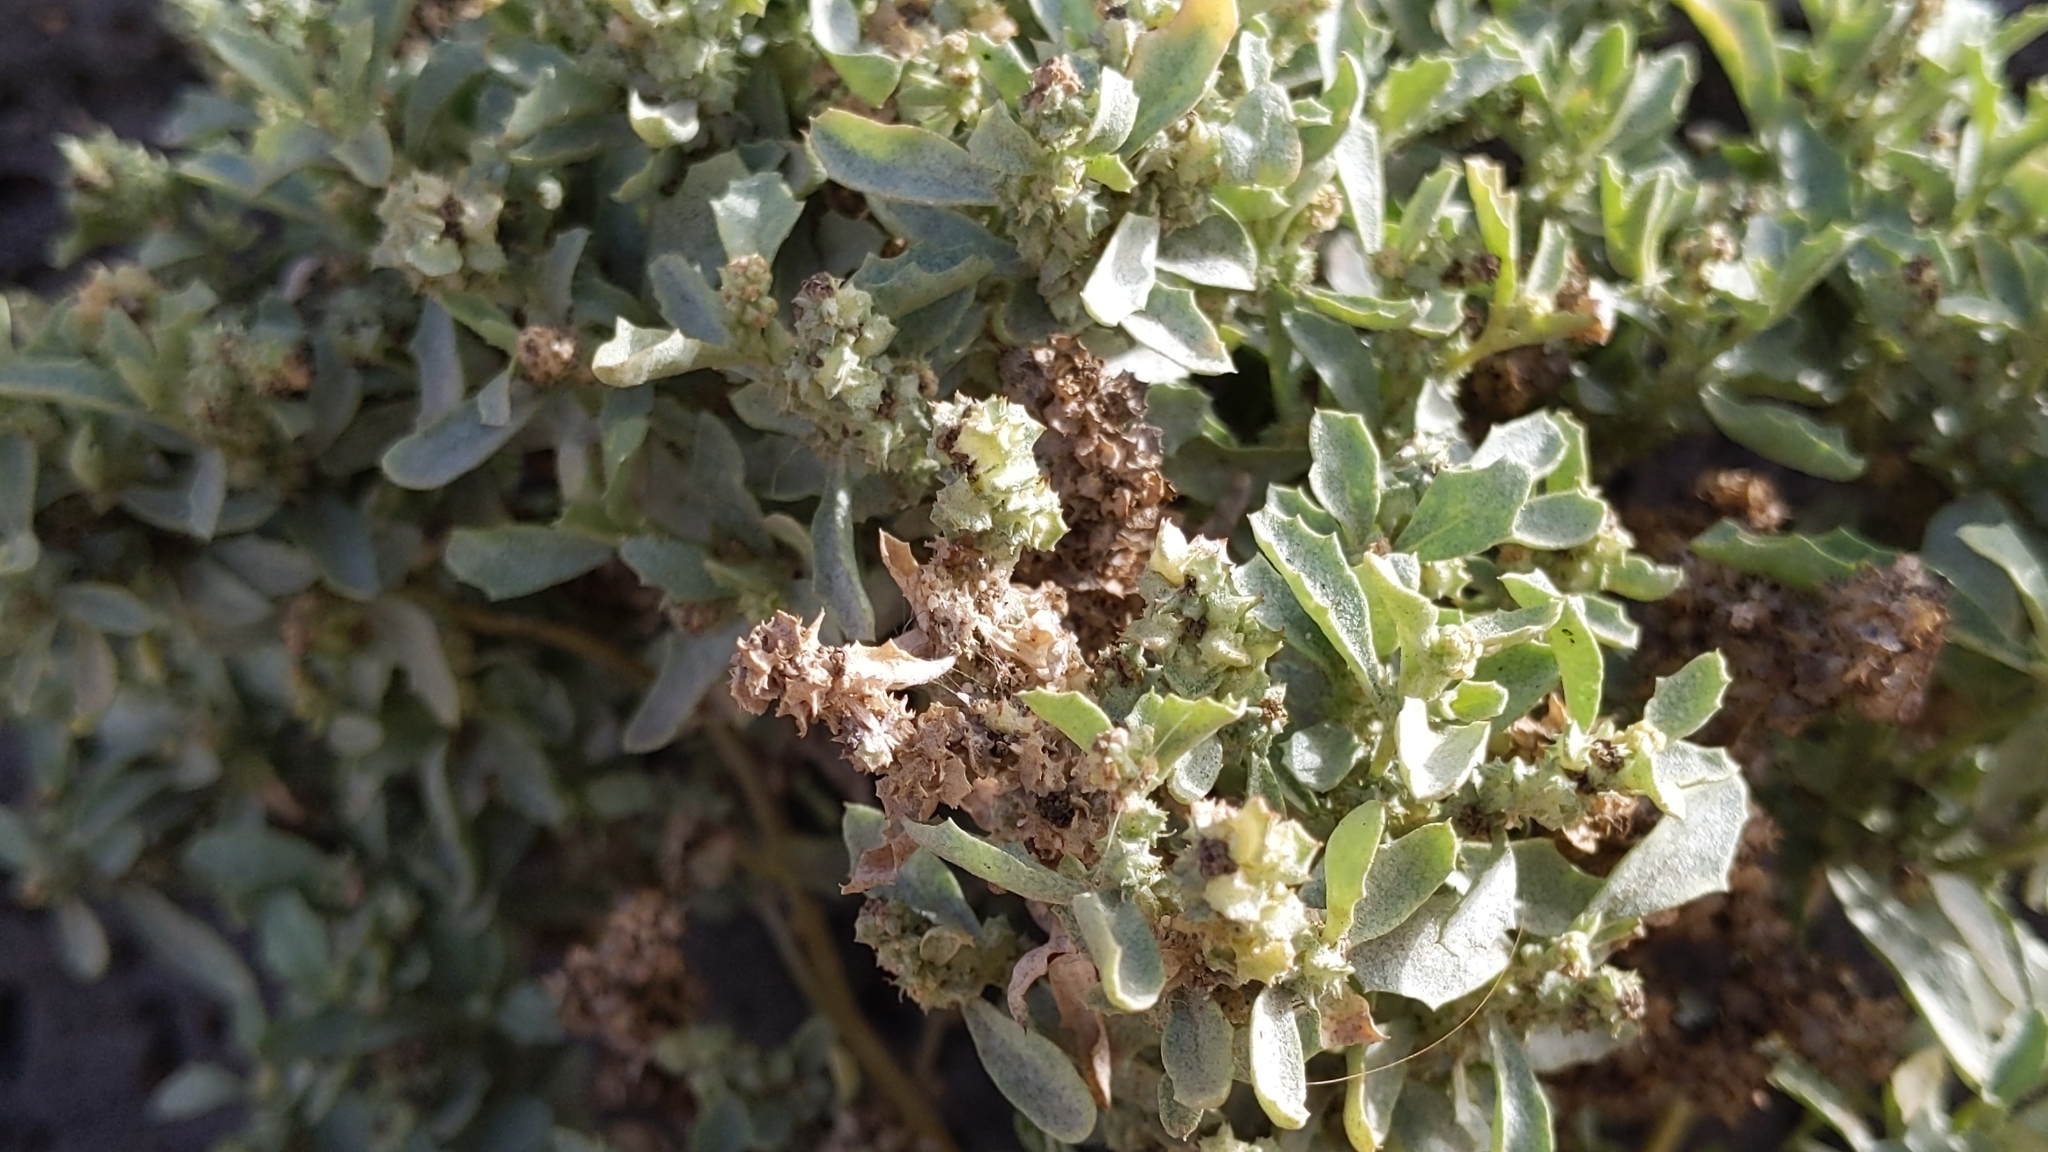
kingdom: Plantae
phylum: Tracheophyta
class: Magnoliopsida
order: Caryophyllales
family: Amaranthaceae
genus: Atriplex
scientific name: Atriplex semilunaris
